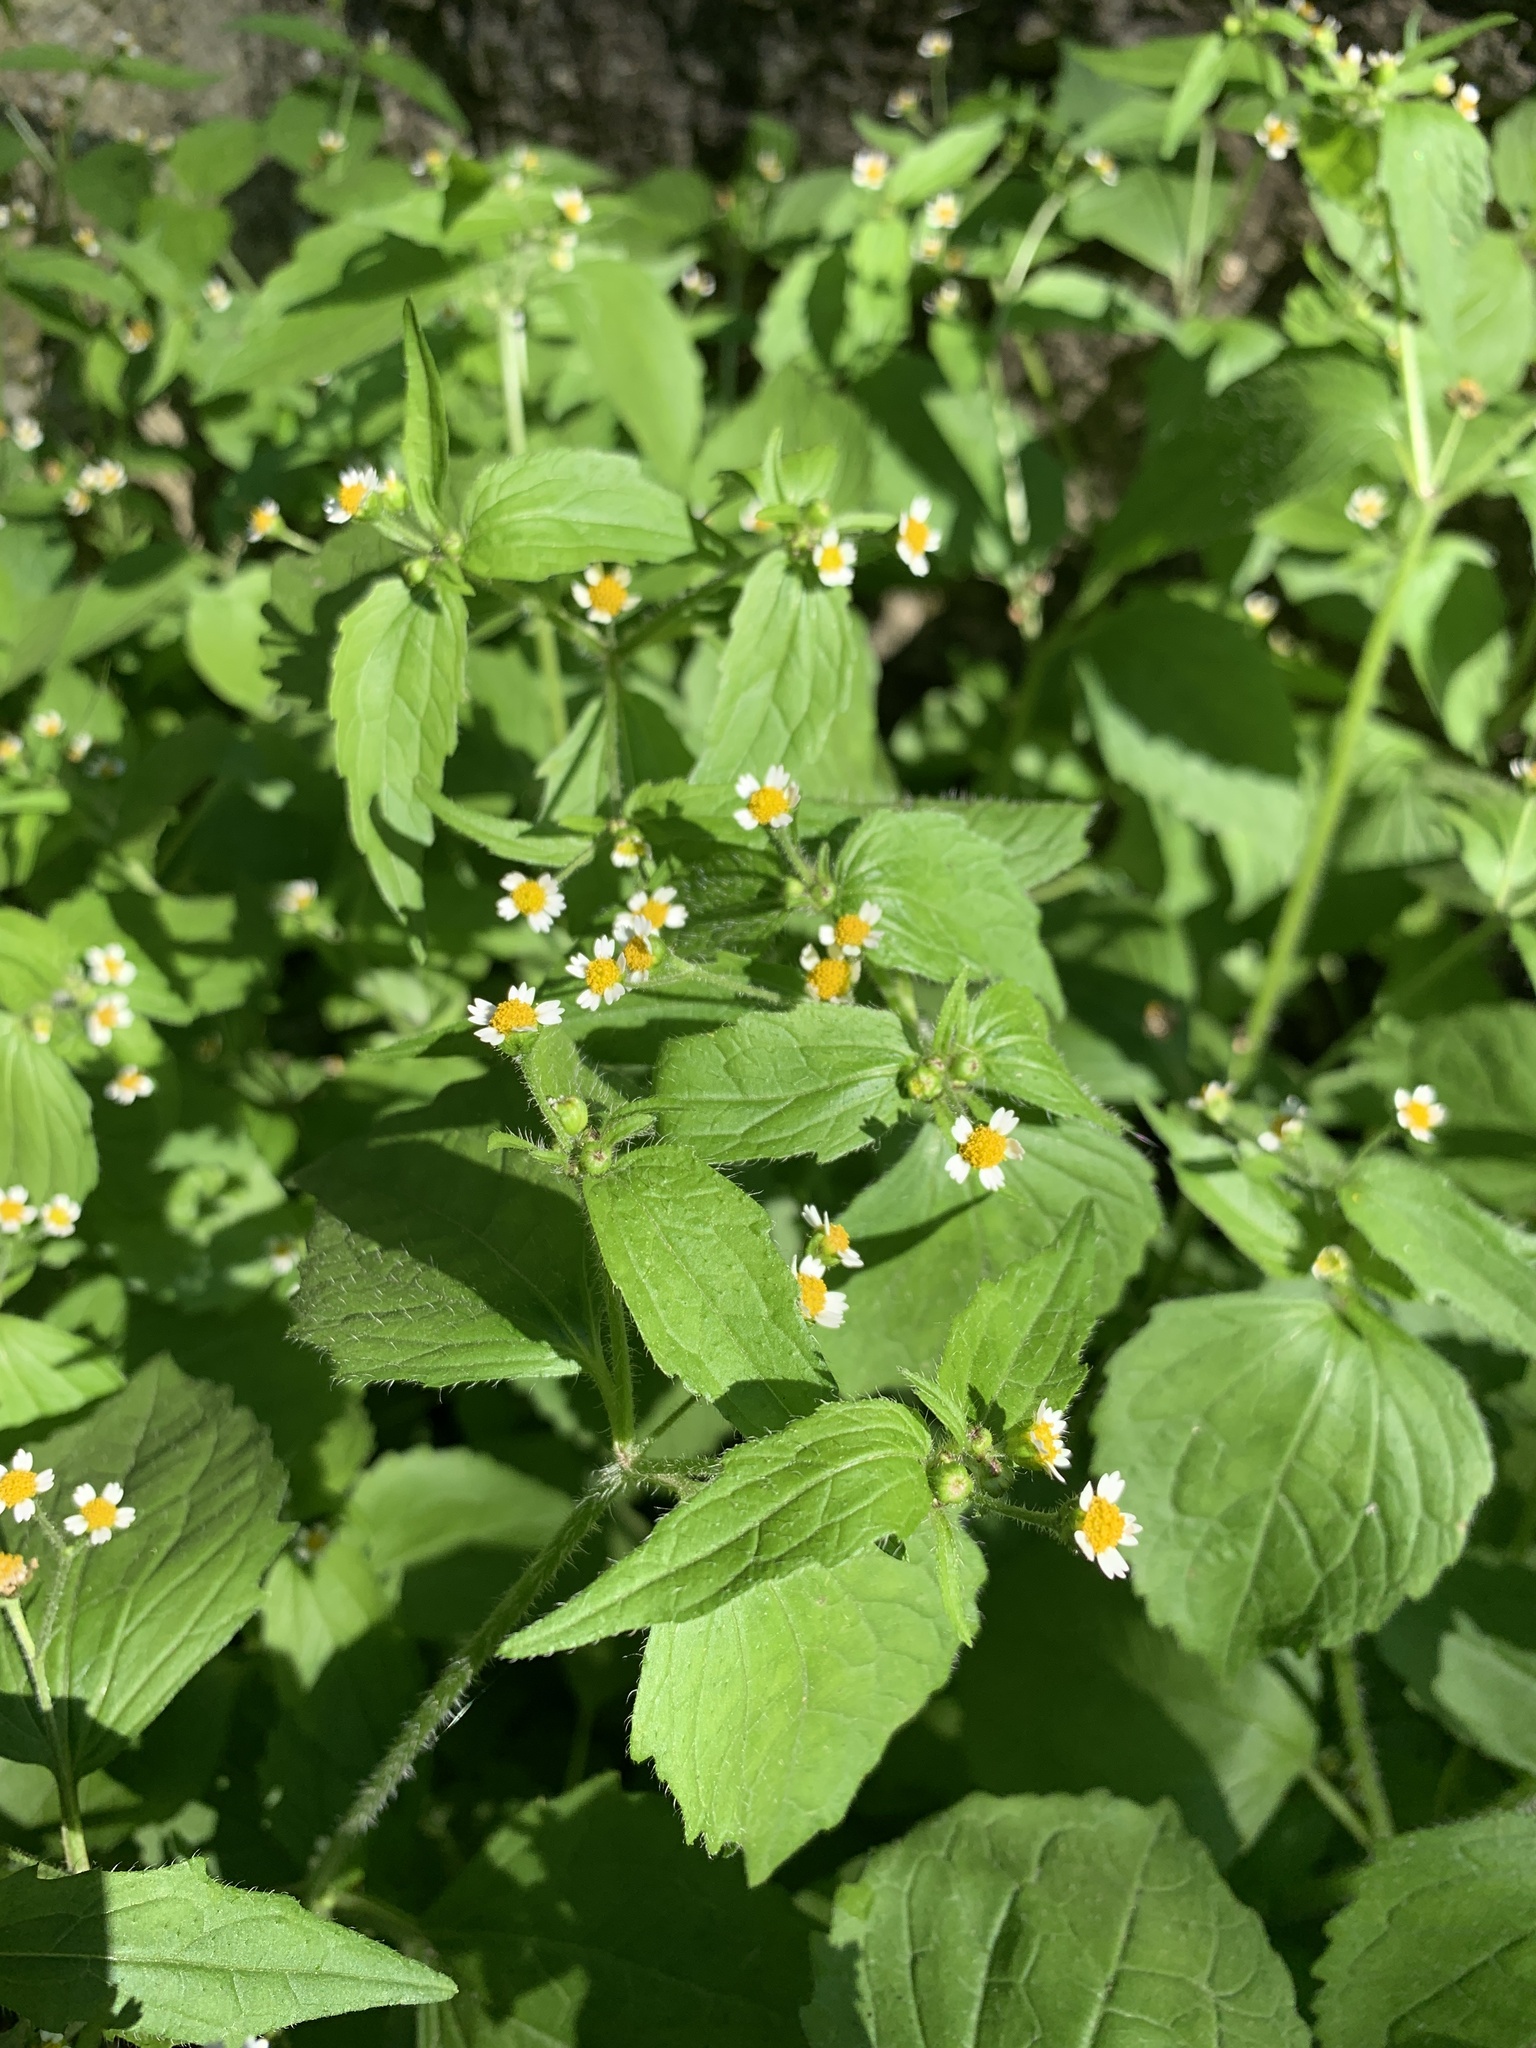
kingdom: Plantae
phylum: Tracheophyta
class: Magnoliopsida
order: Asterales
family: Asteraceae
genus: Galinsoga
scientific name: Galinsoga quadriradiata
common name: Shaggy soldier
